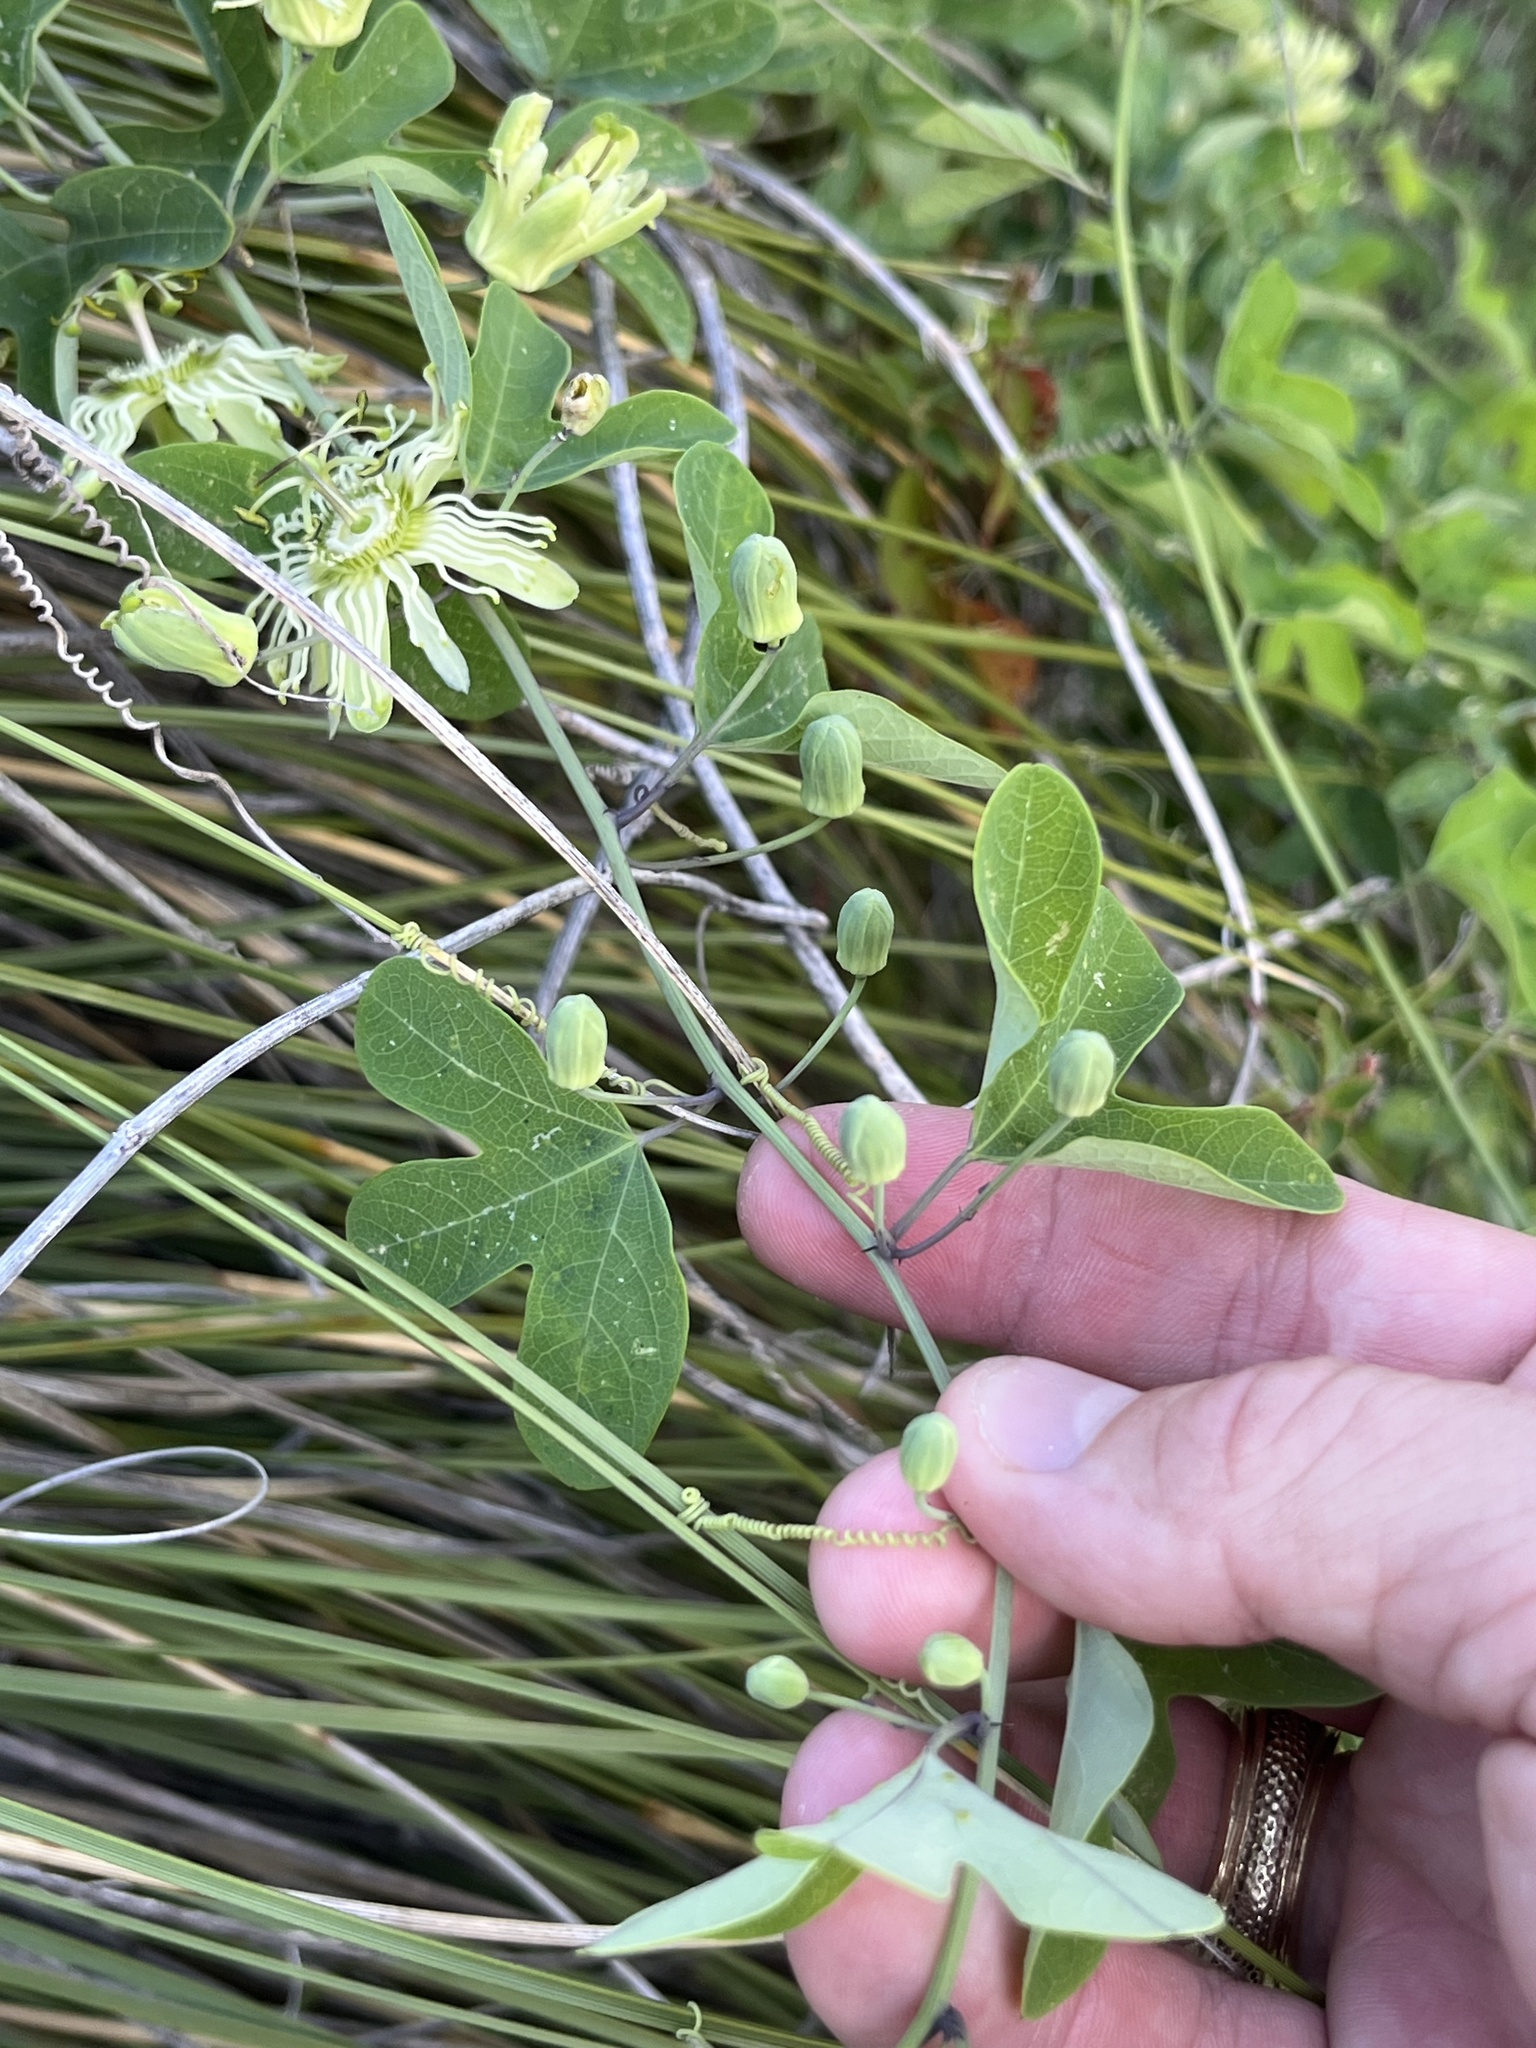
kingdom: Plantae
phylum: Tracheophyta
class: Magnoliopsida
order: Malpighiales
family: Passifloraceae
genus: Passiflora
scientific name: Passiflora affinis
